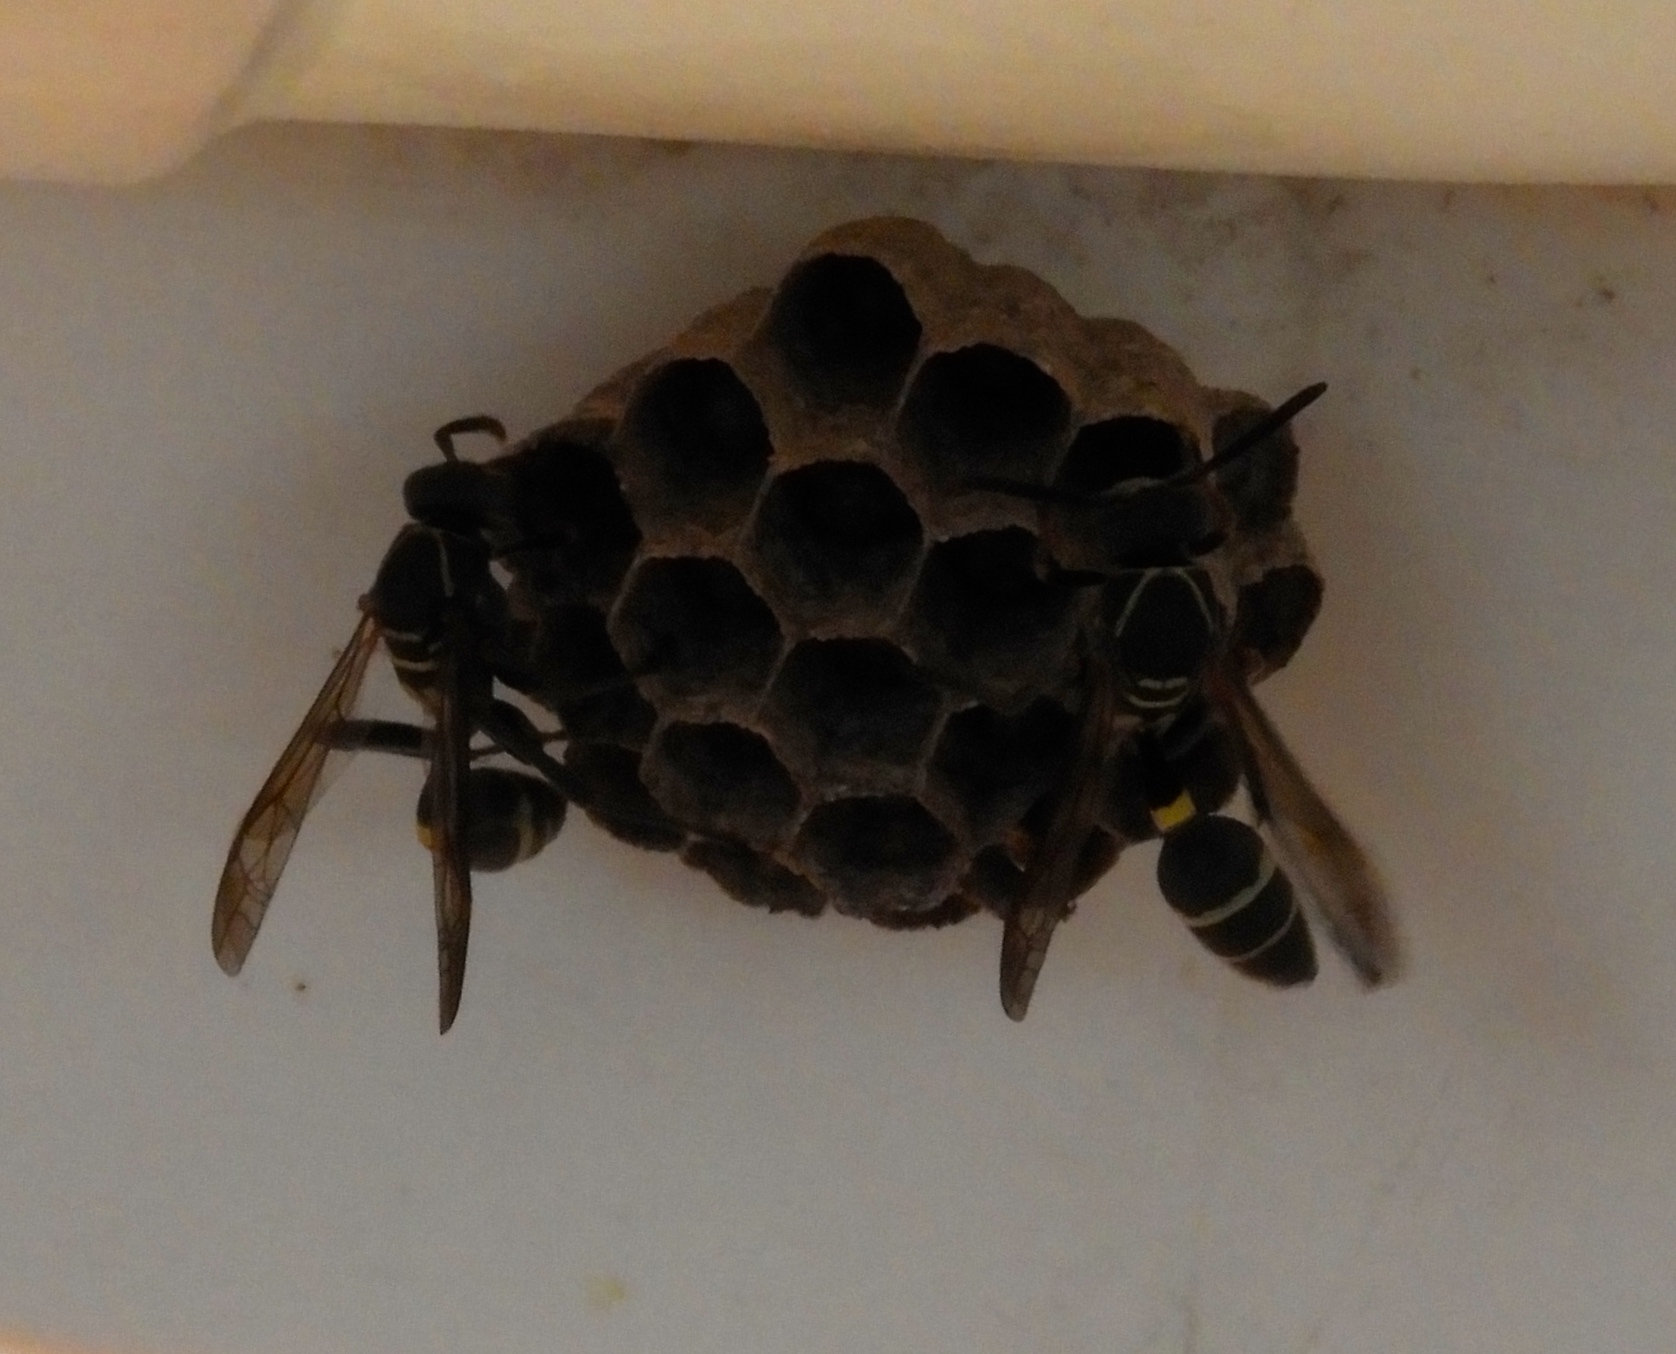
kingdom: Animalia
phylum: Arthropoda
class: Insecta
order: Hymenoptera
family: Vespidae
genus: Mischocyttarus
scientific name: Mischocyttarus rufidens
